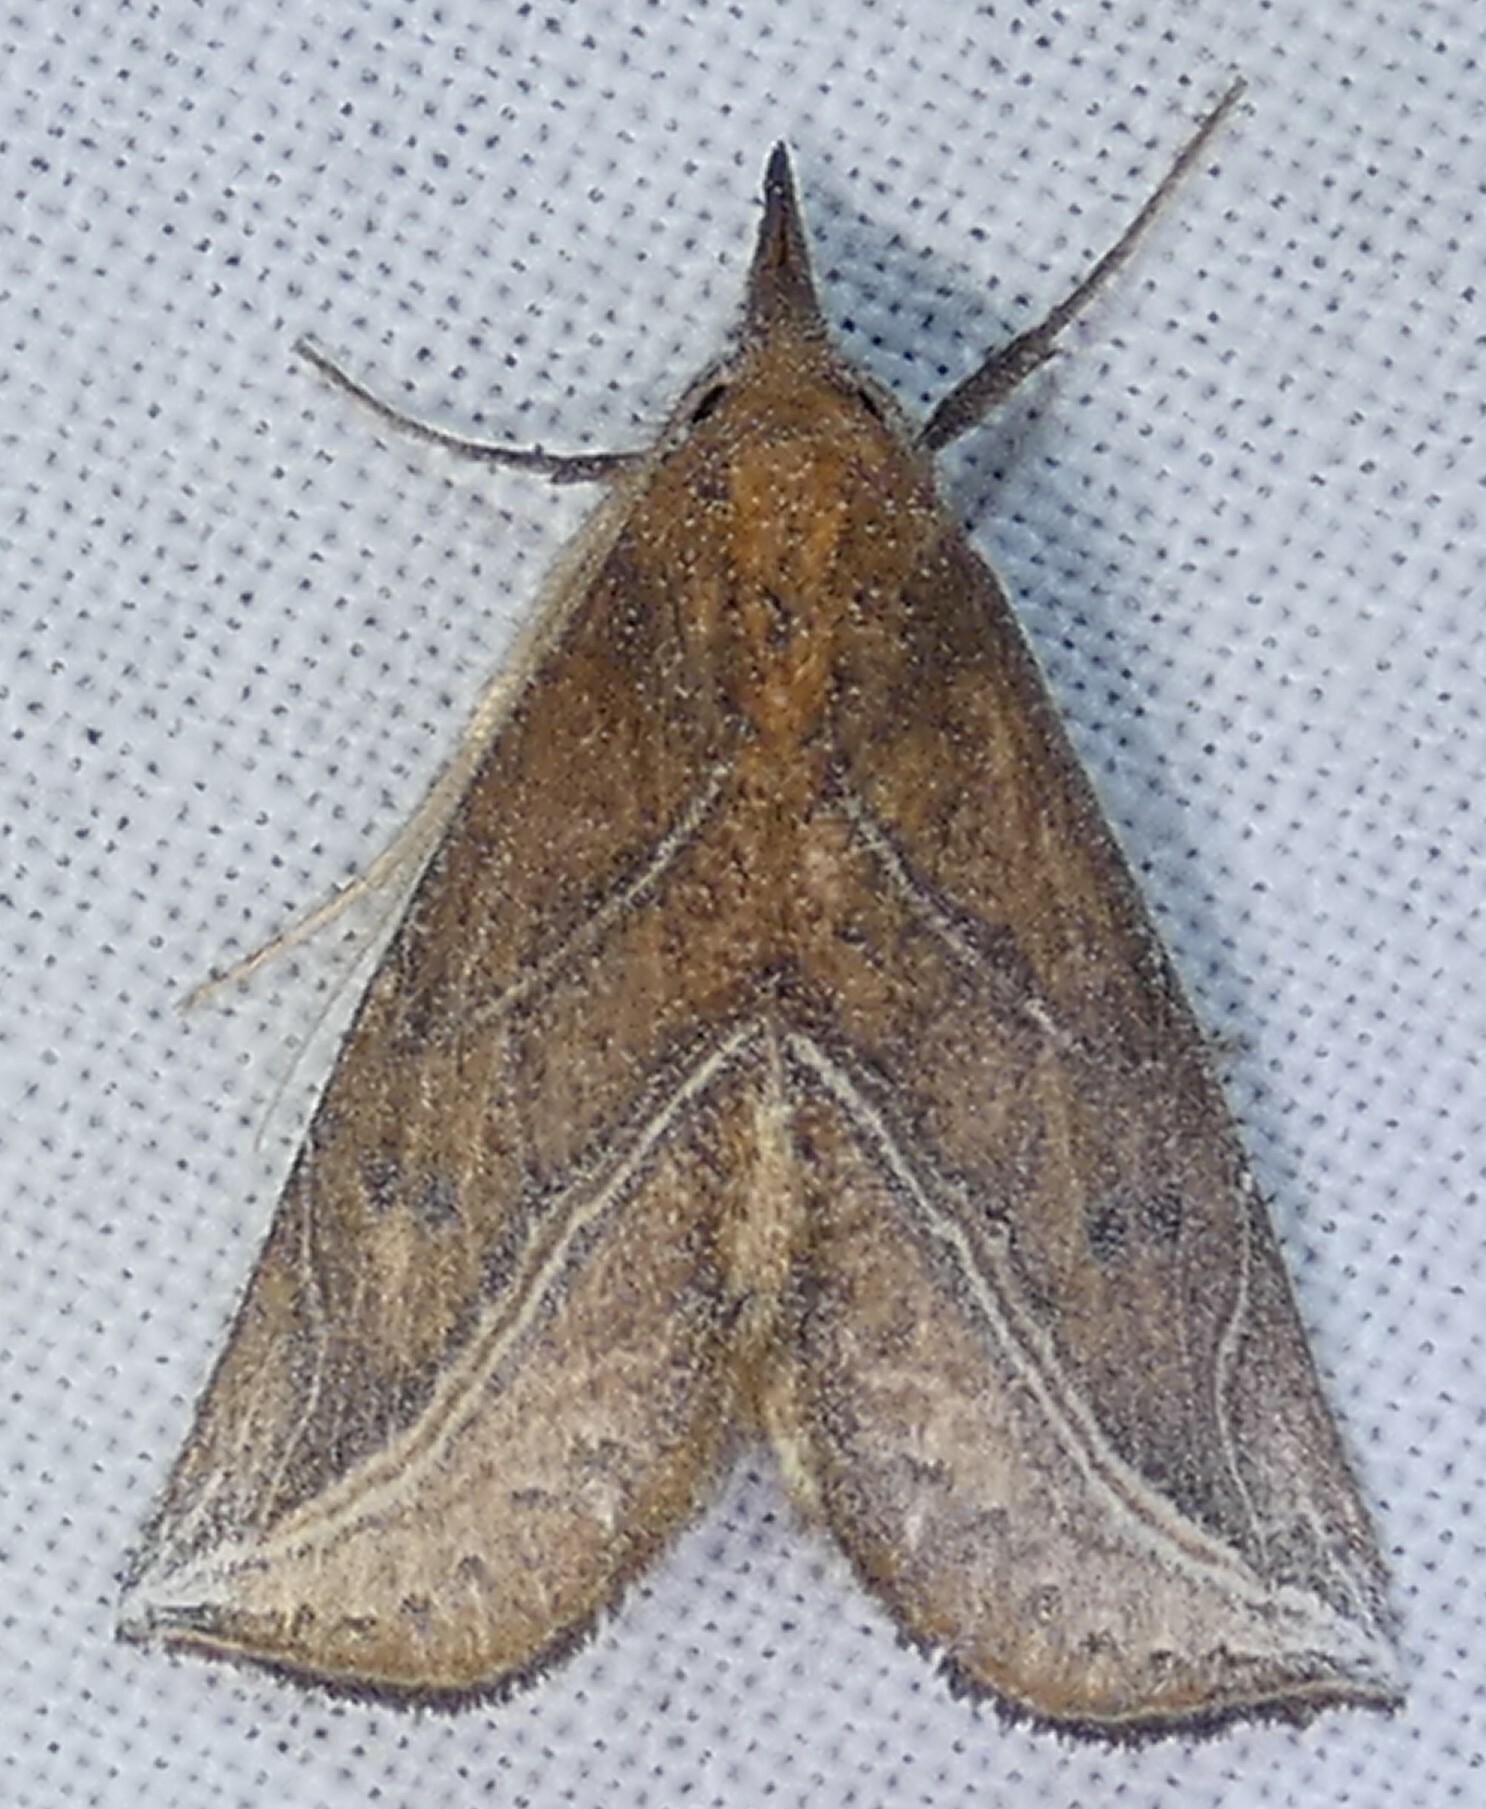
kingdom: Animalia
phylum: Arthropoda
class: Insecta
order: Lepidoptera
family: Erebidae
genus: Phyprosopus
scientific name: Phyprosopus callitrichoides
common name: Curved-lined owlet
